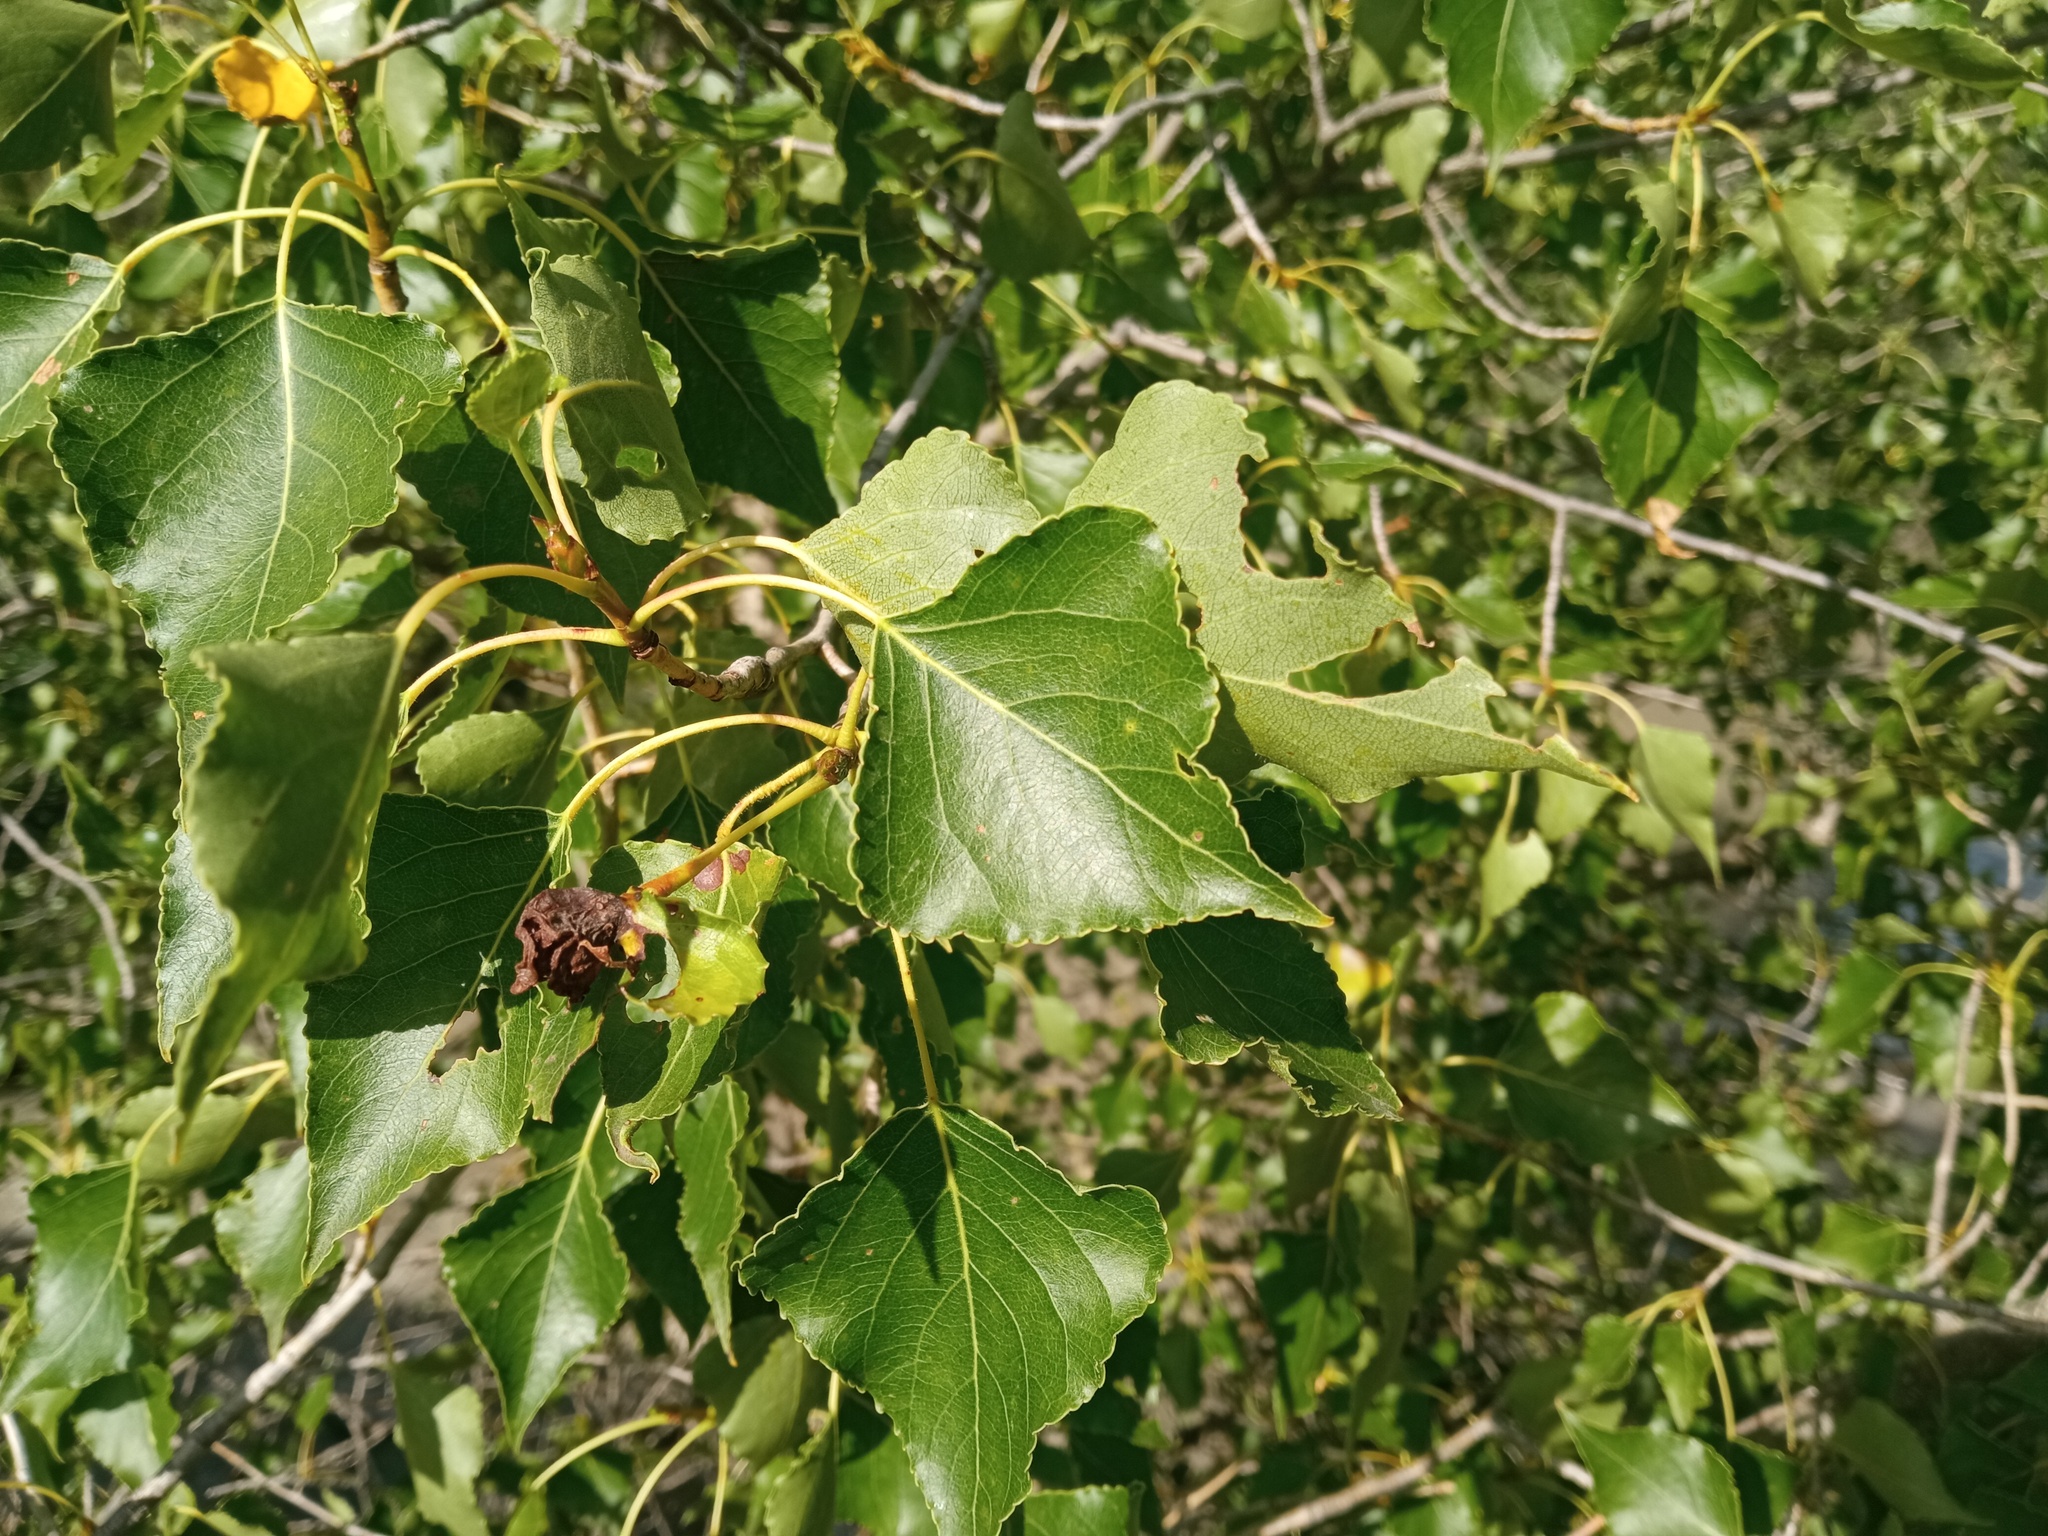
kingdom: Plantae
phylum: Tracheophyta
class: Magnoliopsida
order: Malpighiales
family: Salicaceae
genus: Populus
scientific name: Populus nigra
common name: Black poplar
